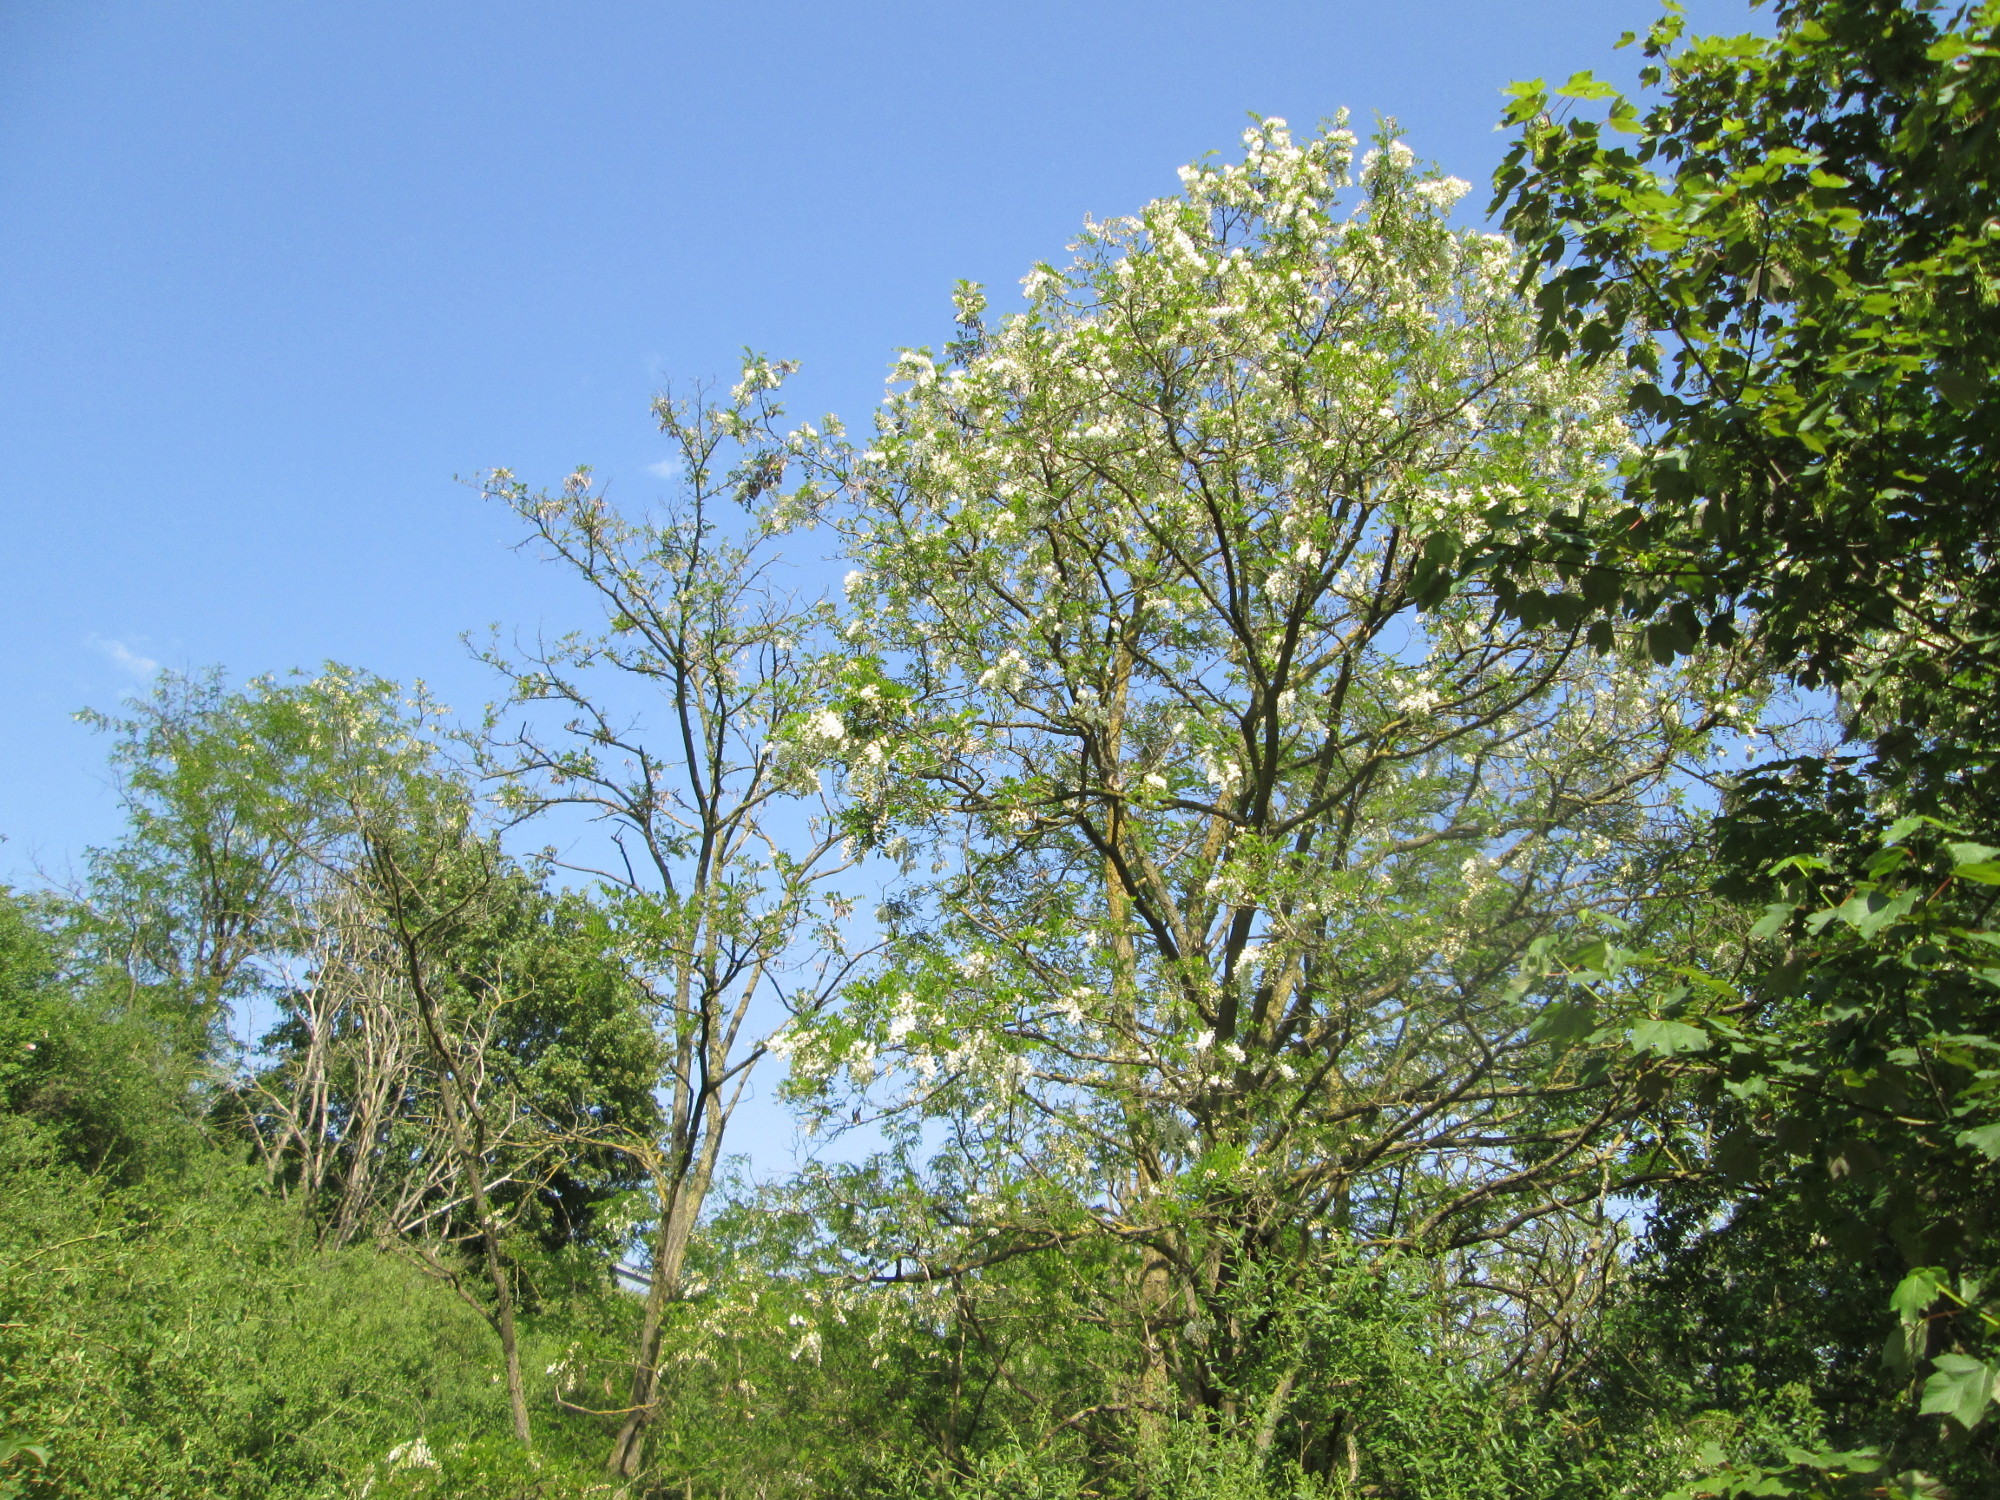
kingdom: Plantae
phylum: Tracheophyta
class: Magnoliopsida
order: Fabales
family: Fabaceae
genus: Robinia
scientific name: Robinia pseudoacacia
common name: Black locust
